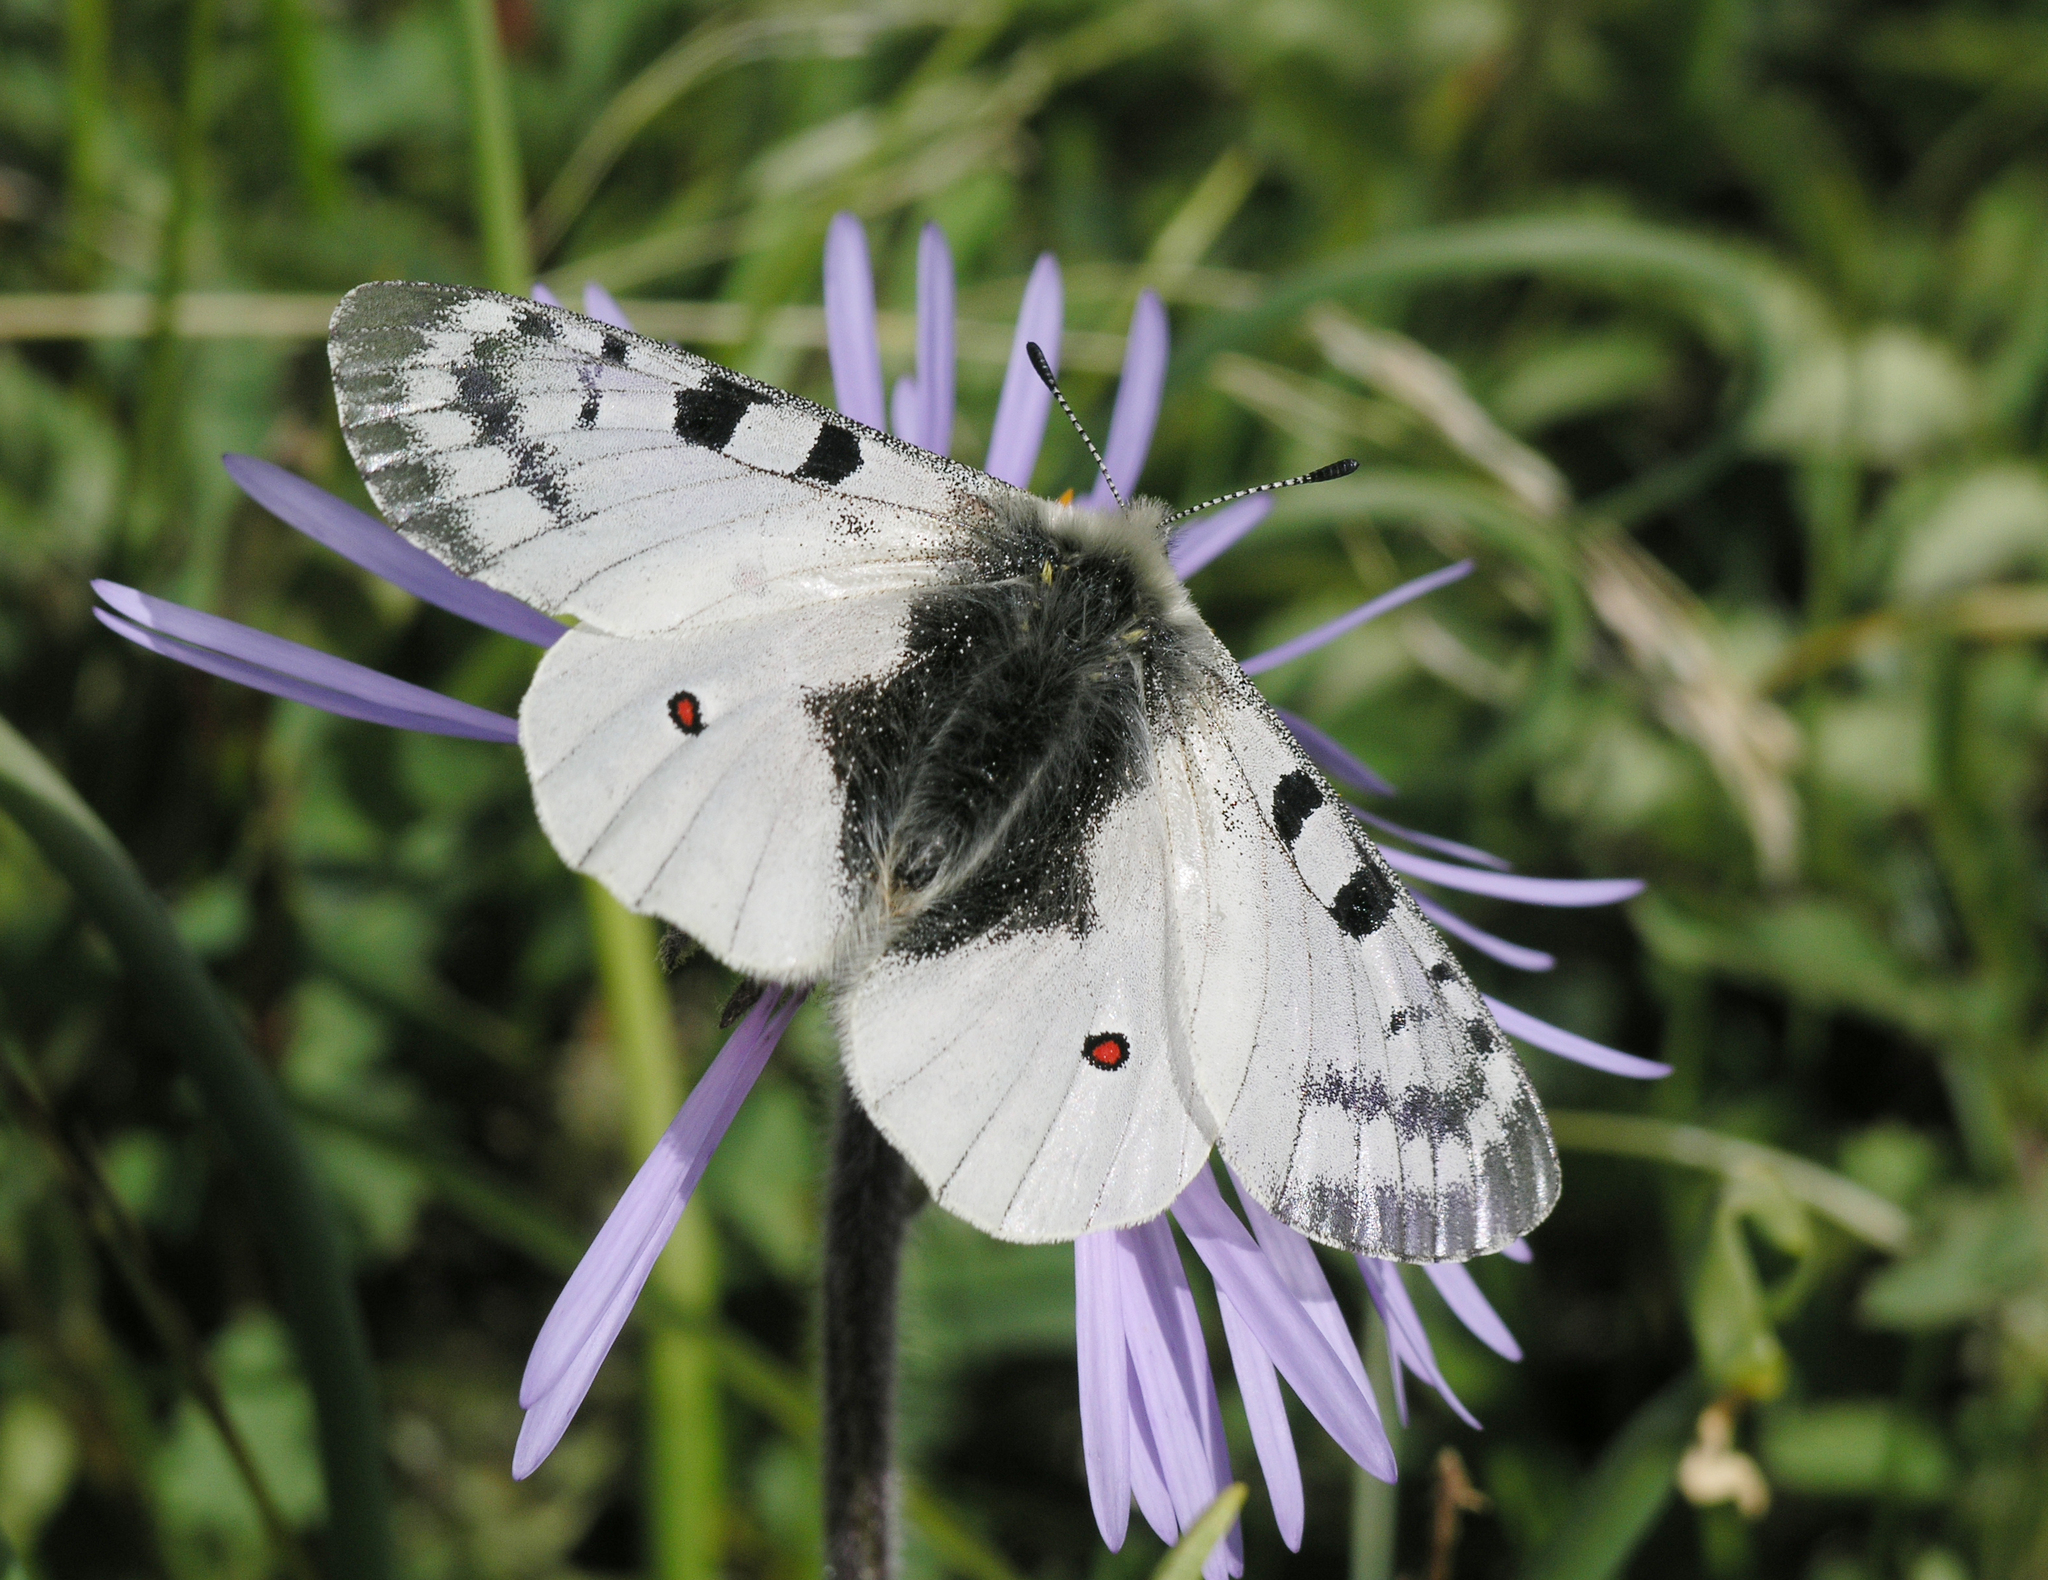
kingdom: Animalia
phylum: Arthropoda
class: Insecta
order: Lepidoptera
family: Papilionidae
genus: Parnassius
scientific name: Parnassius phoebus
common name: Small apollo
